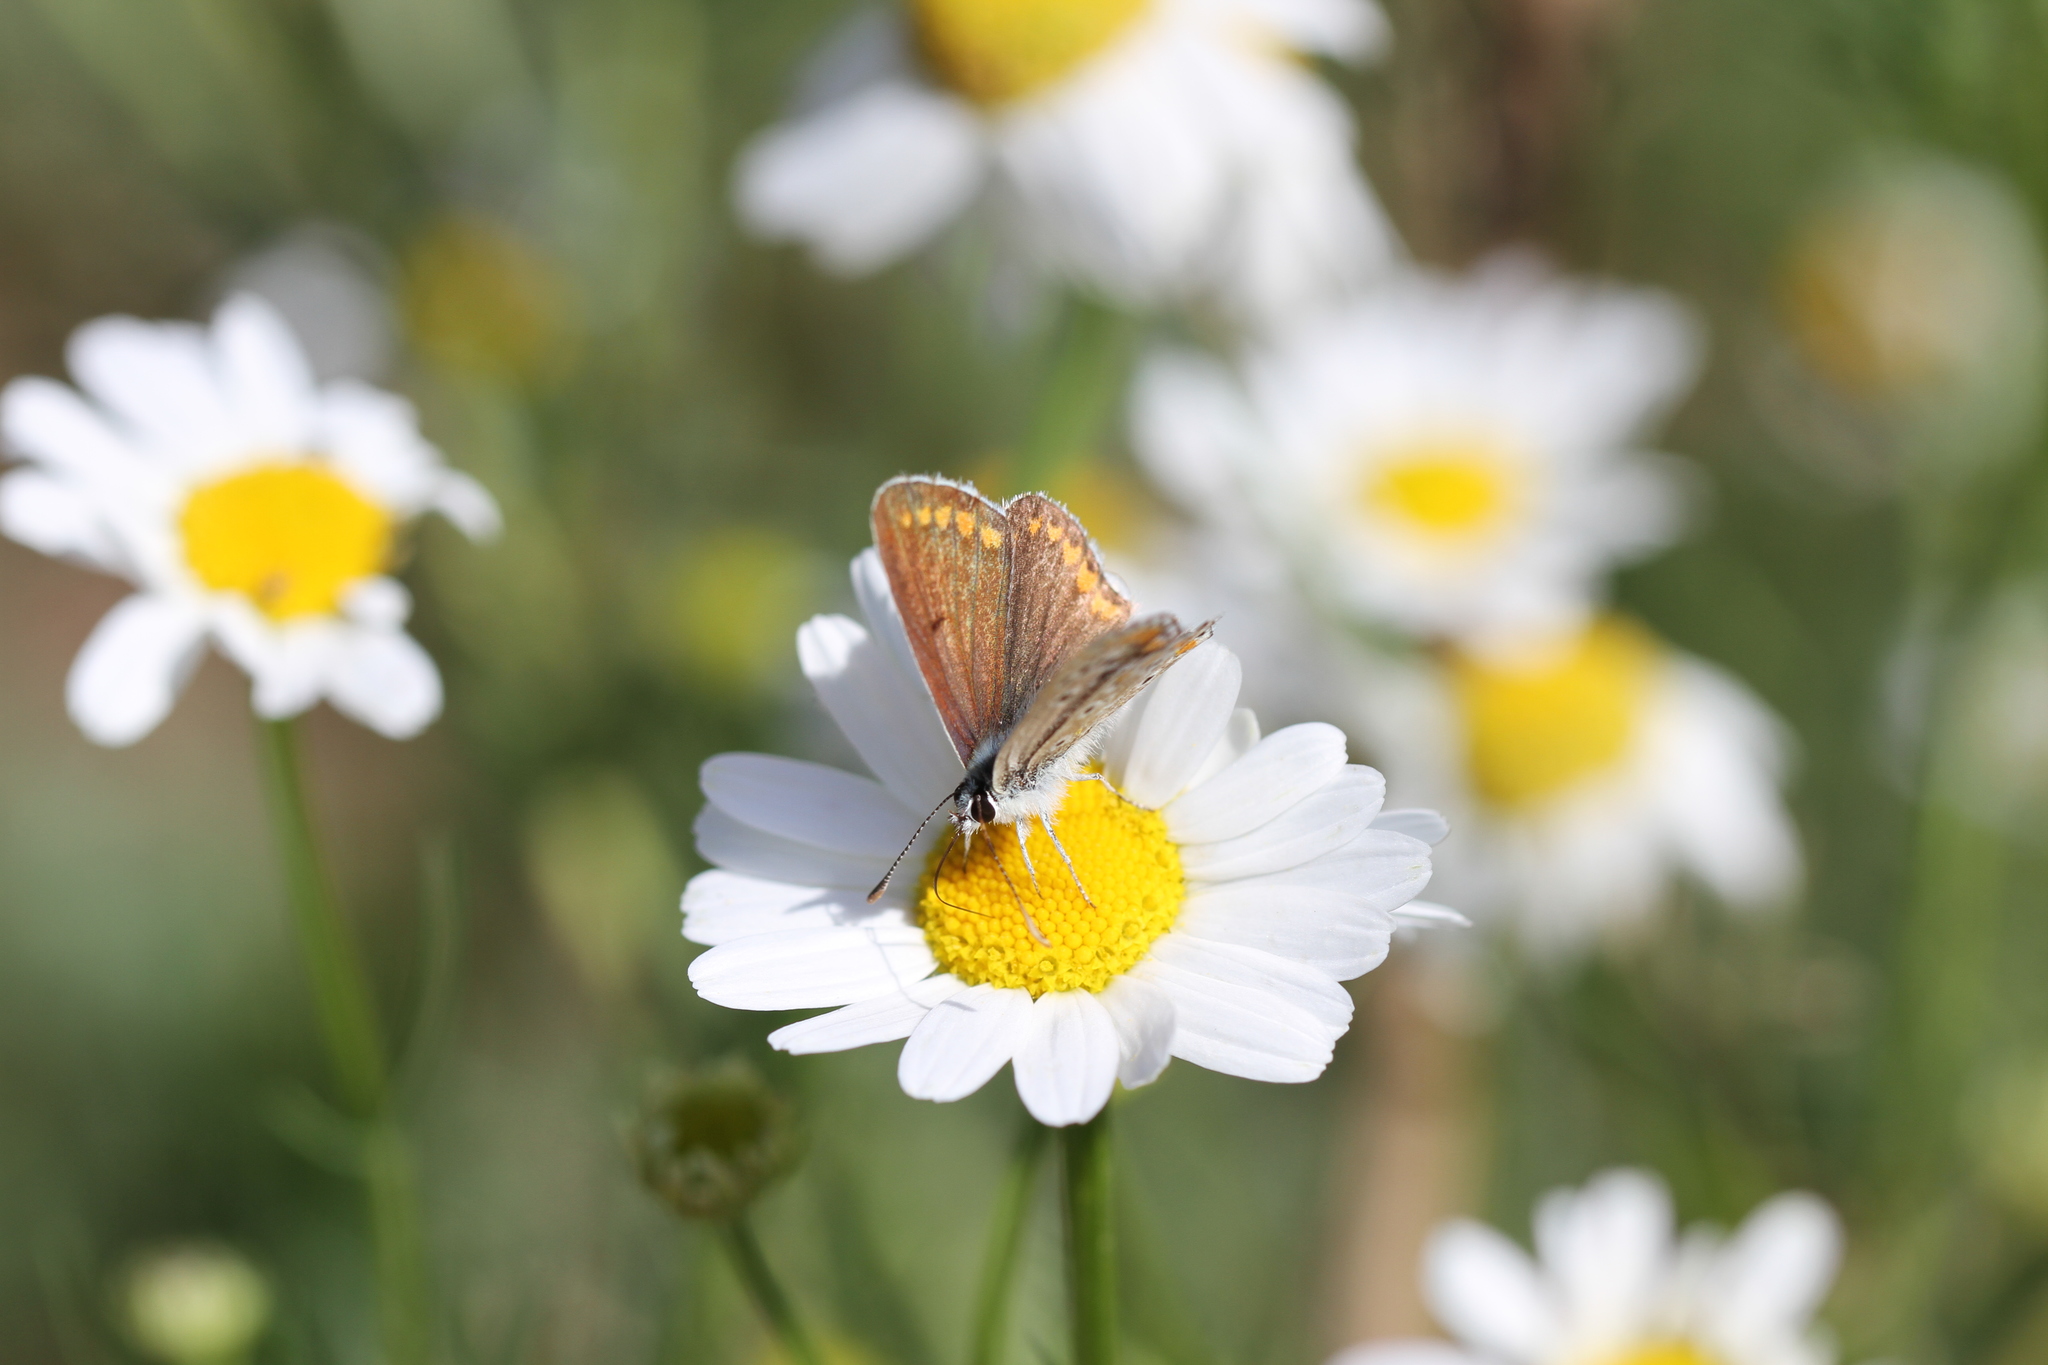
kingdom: Animalia
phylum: Arthropoda
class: Insecta
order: Lepidoptera
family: Lycaenidae
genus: Aricia
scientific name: Aricia agestis
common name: Brown argus
